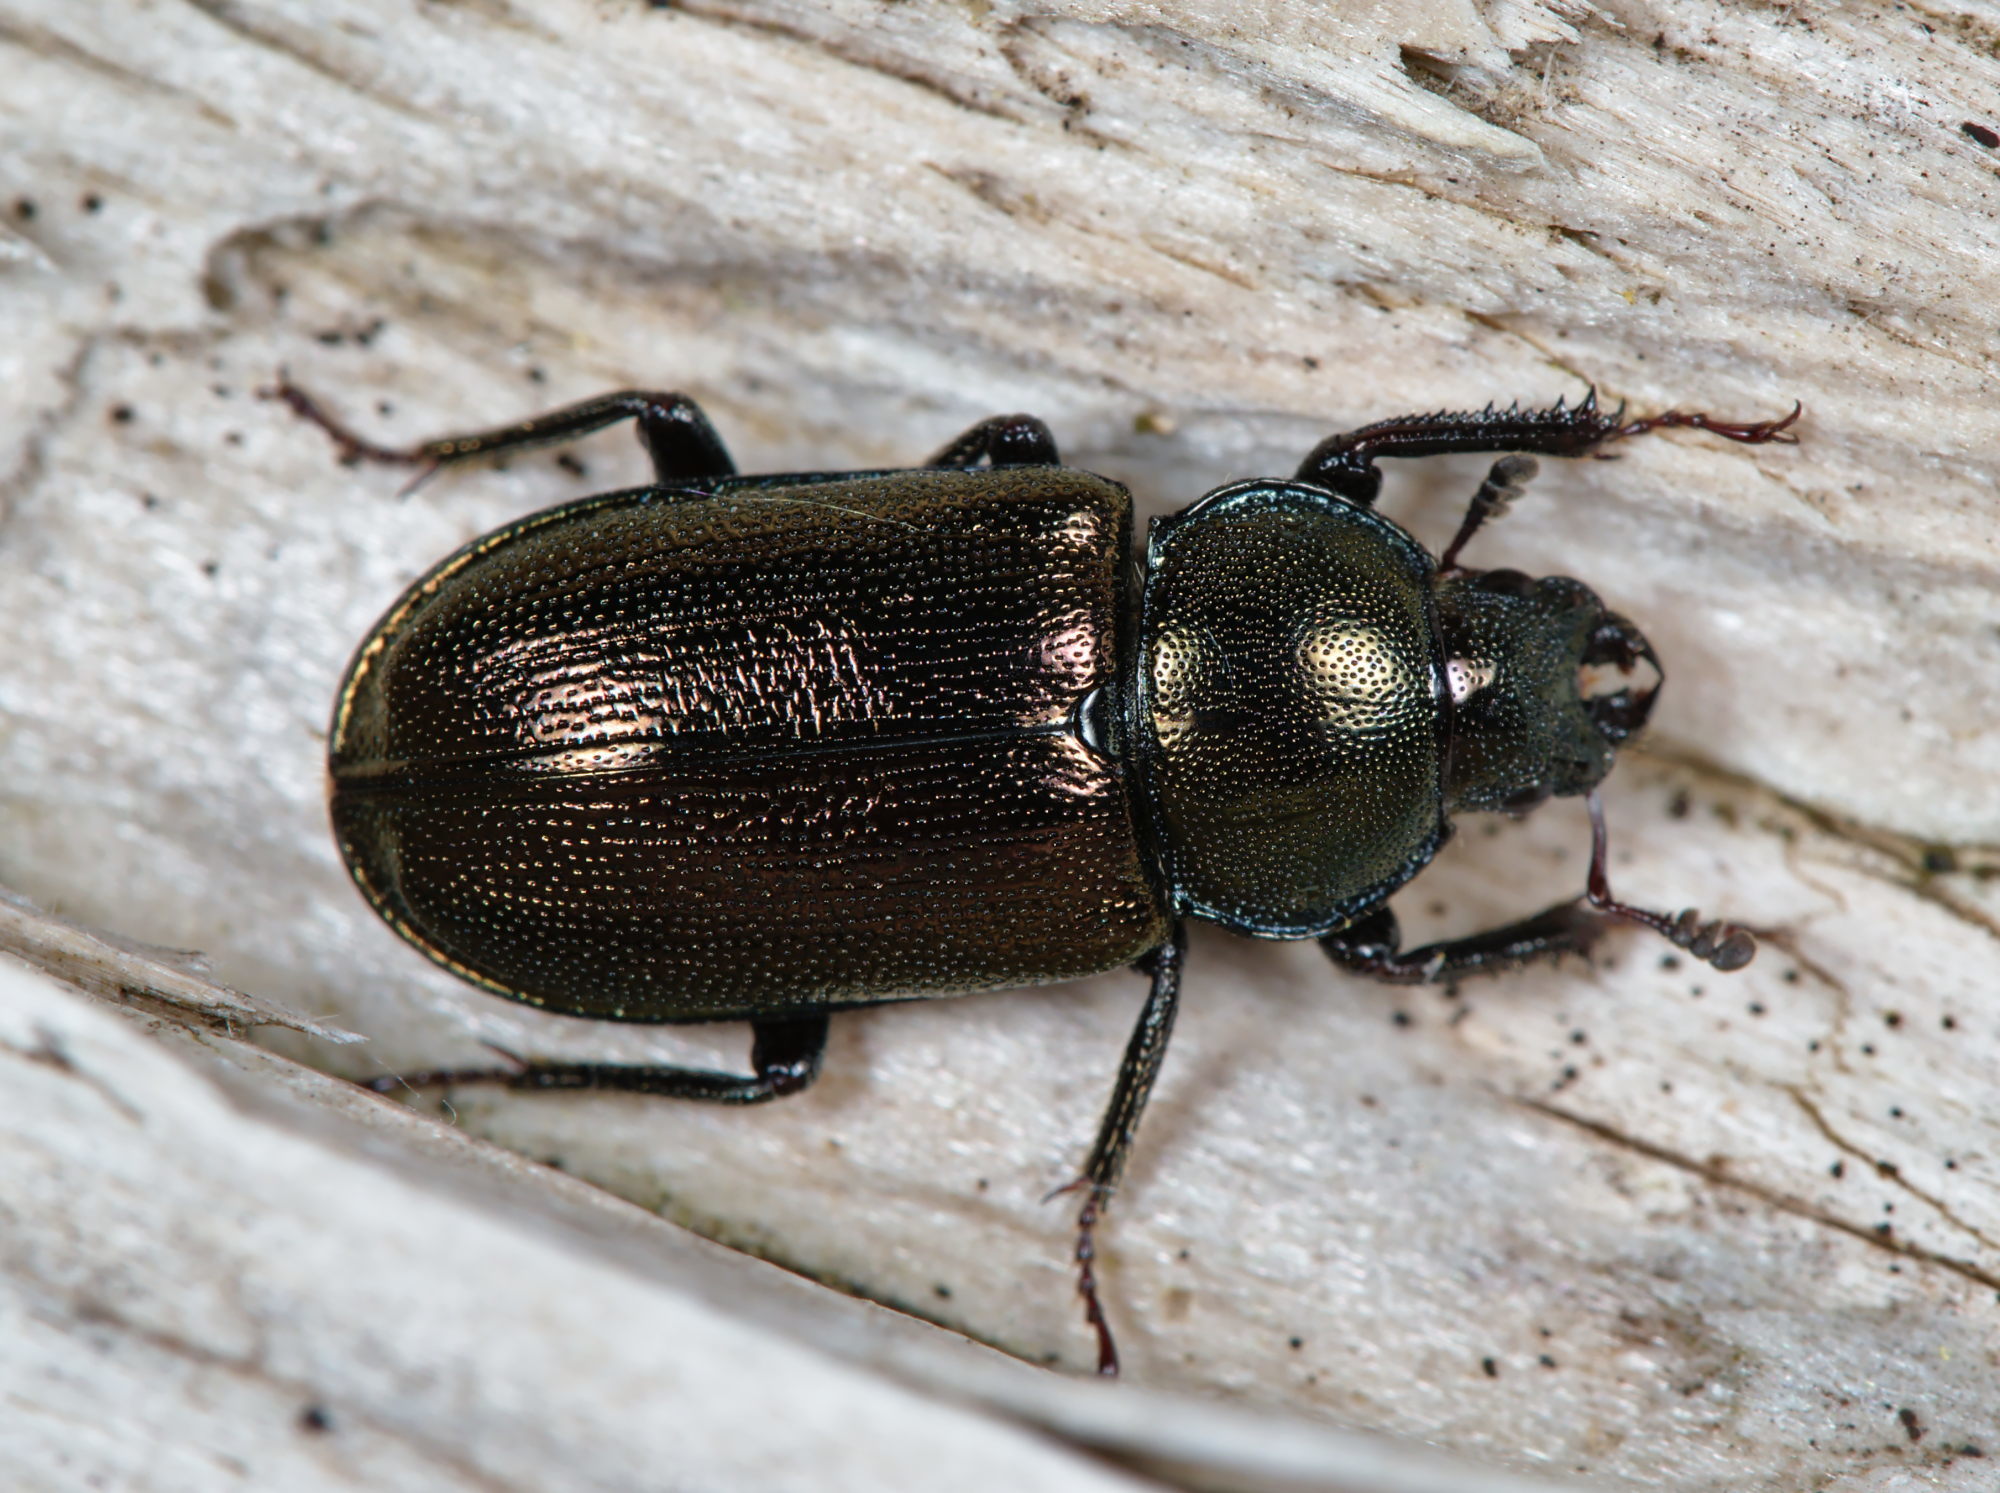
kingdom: Animalia
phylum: Arthropoda
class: Insecta
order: Coleoptera
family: Lucanidae
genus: Platycerus
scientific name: Platycerus caraboides
